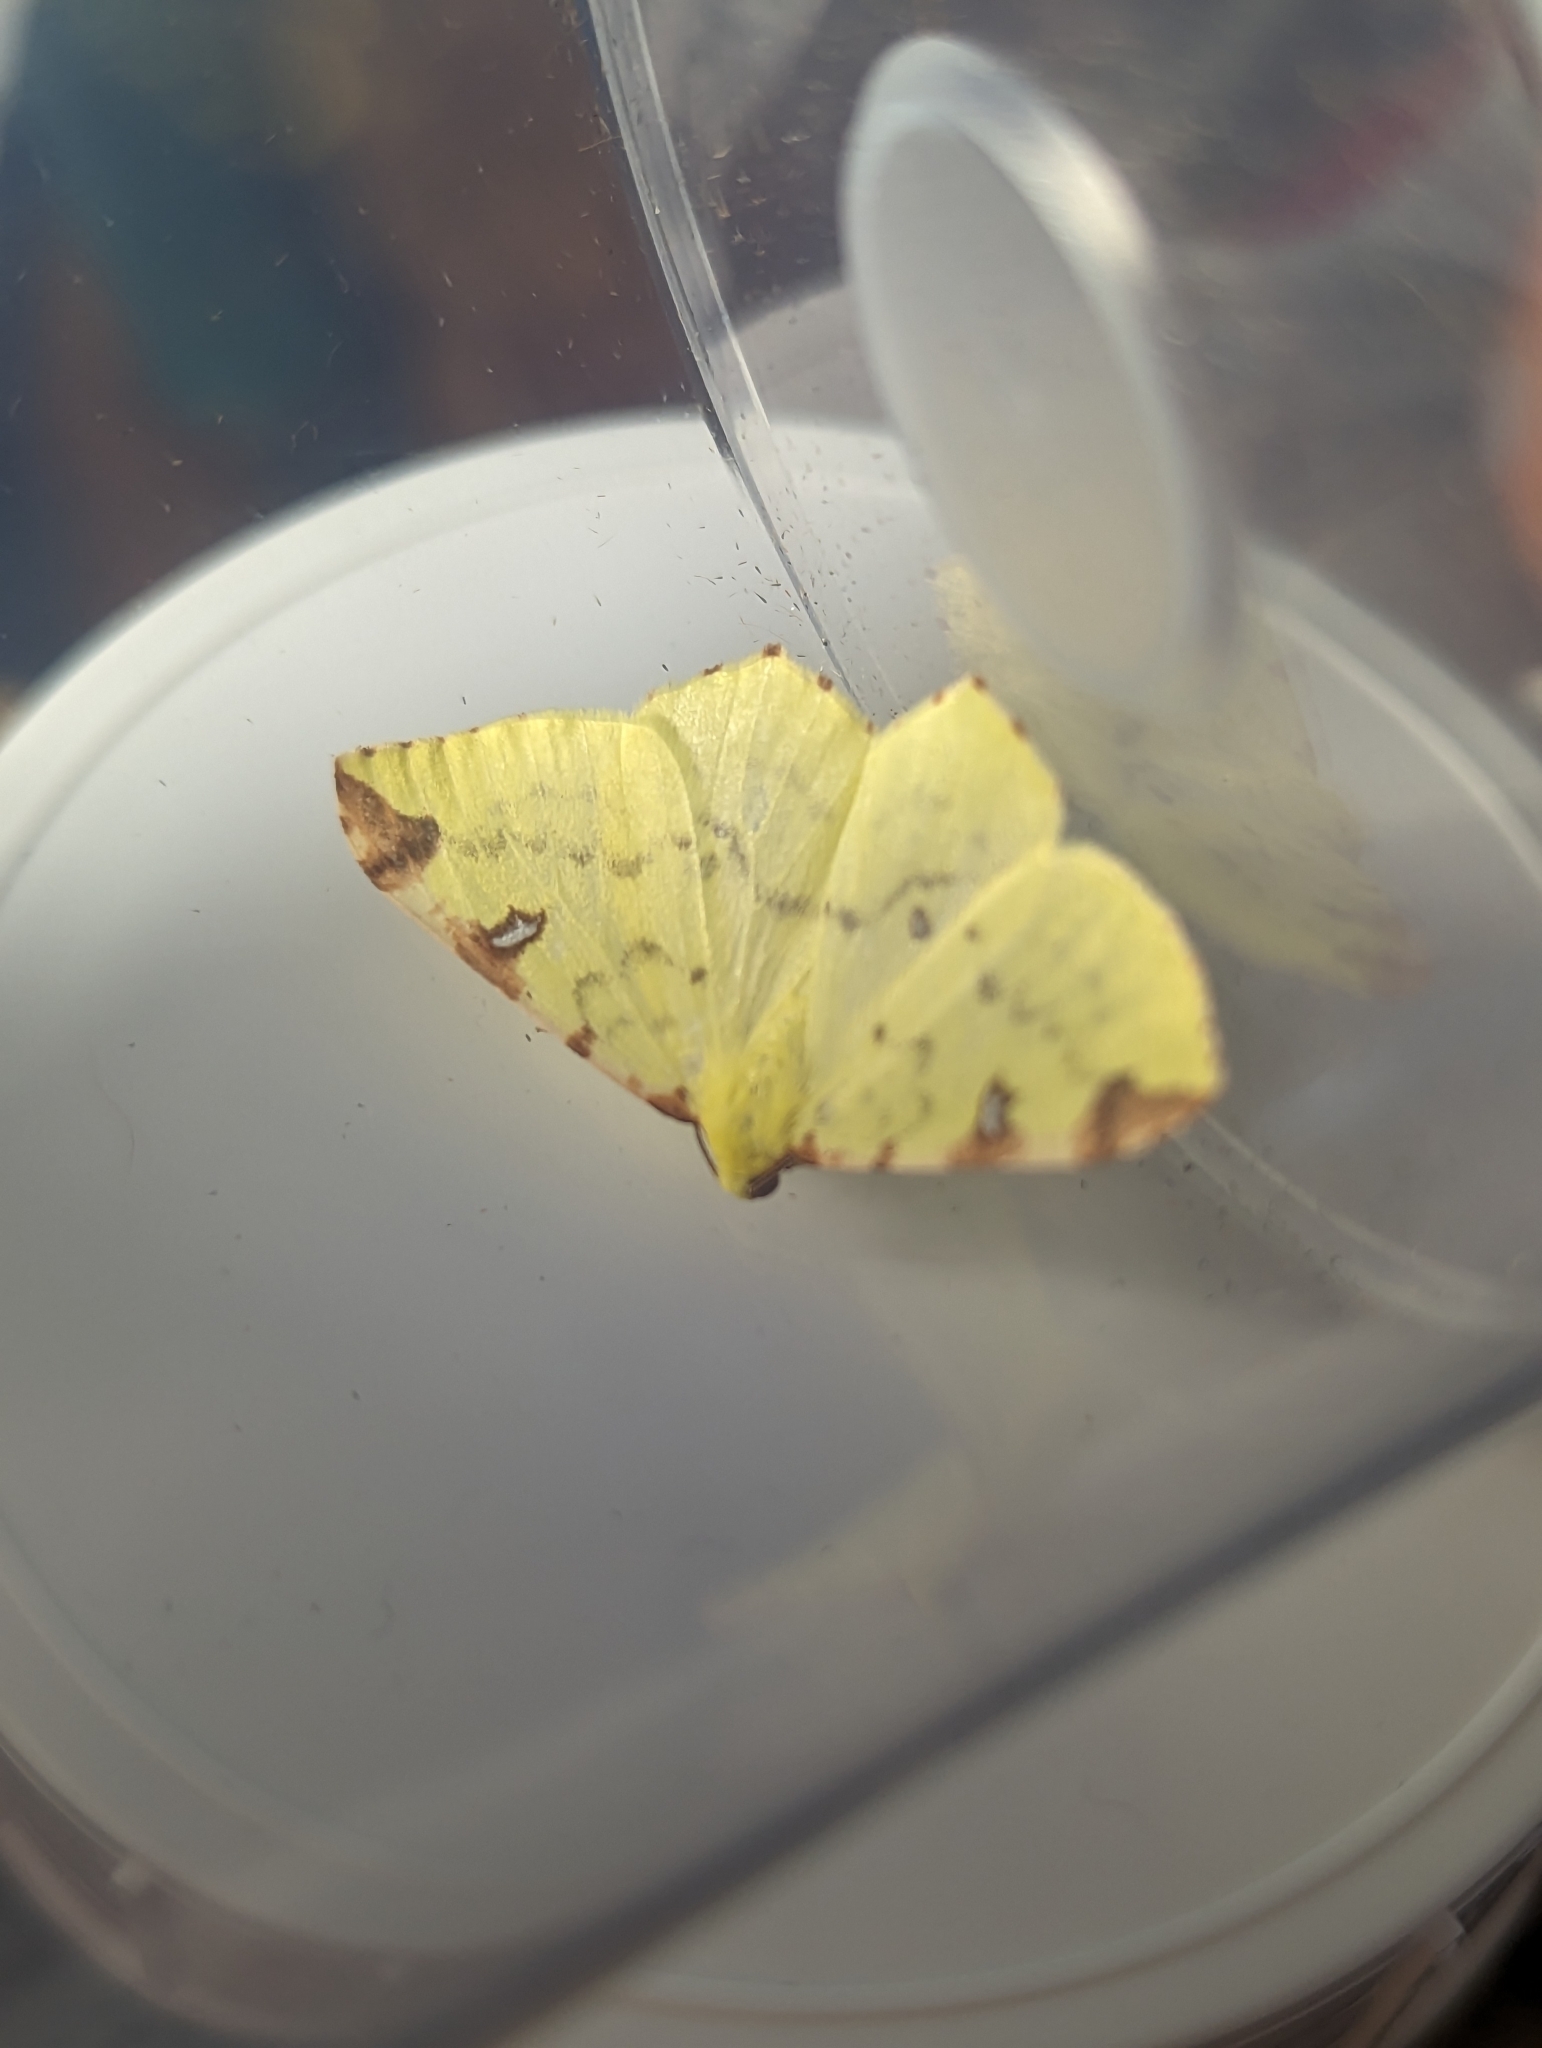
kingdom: Animalia
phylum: Arthropoda
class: Insecta
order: Lepidoptera
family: Geometridae
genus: Opisthograptis
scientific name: Opisthograptis luteolata
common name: Brimstone moth
